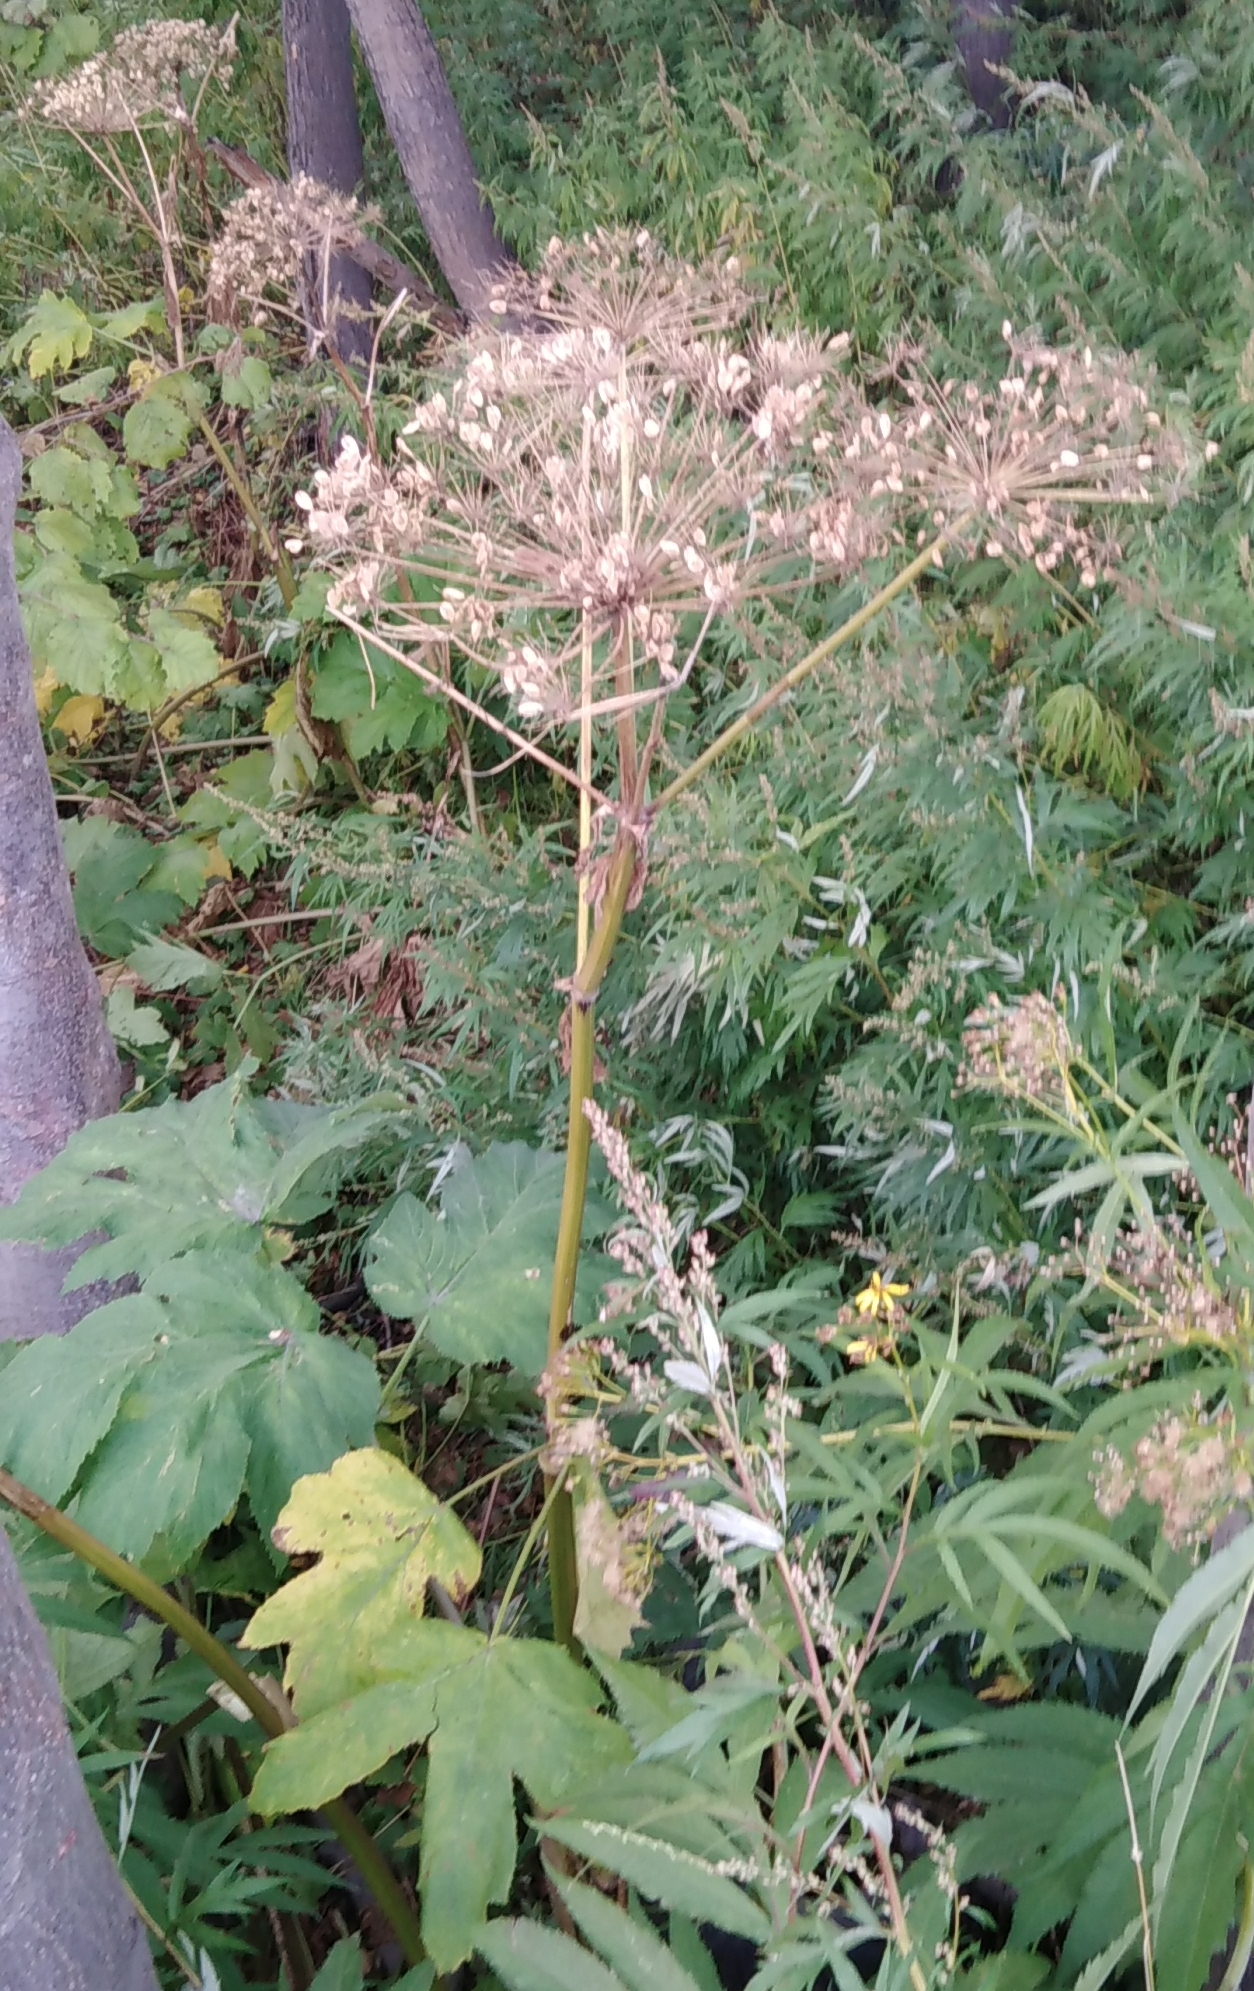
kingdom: Plantae
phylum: Tracheophyta
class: Magnoliopsida
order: Apiales
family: Apiaceae
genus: Heracleum
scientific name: Heracleum maximum
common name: American cow parsnip
